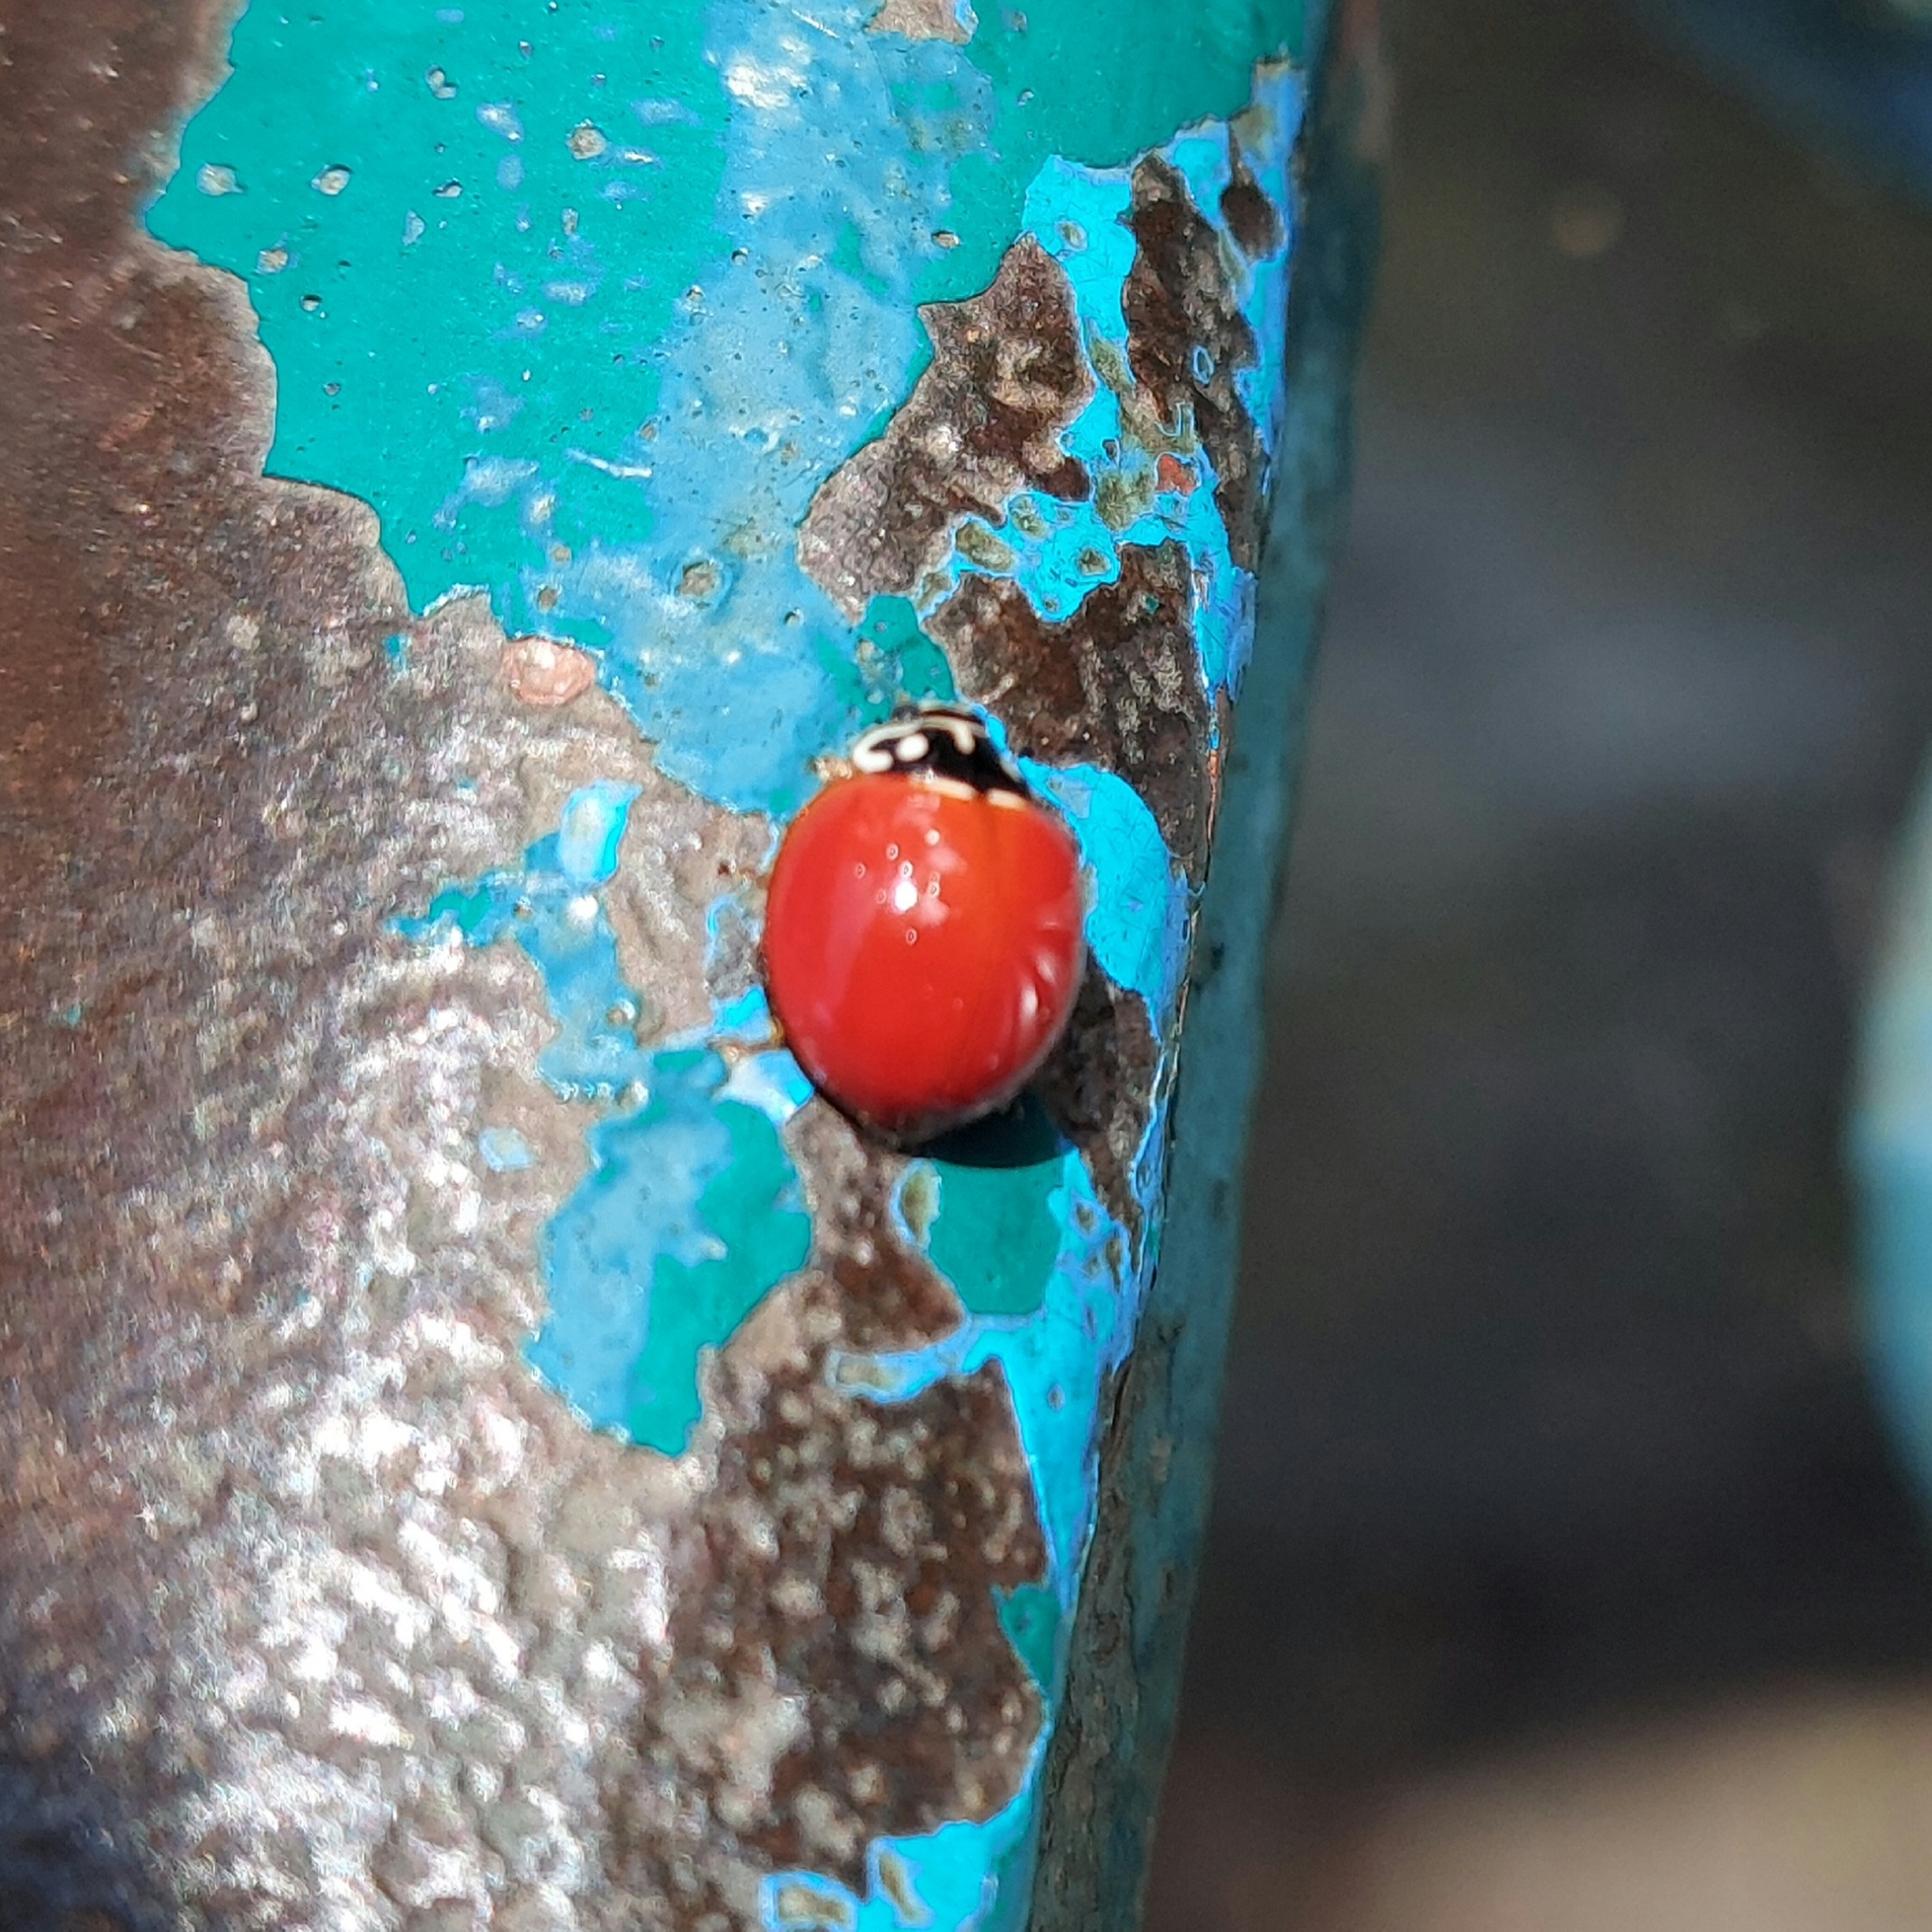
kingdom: Animalia
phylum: Arthropoda
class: Insecta
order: Coleoptera
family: Coccinellidae
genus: Cycloneda
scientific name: Cycloneda sanguinea
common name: Ladybird beetle
